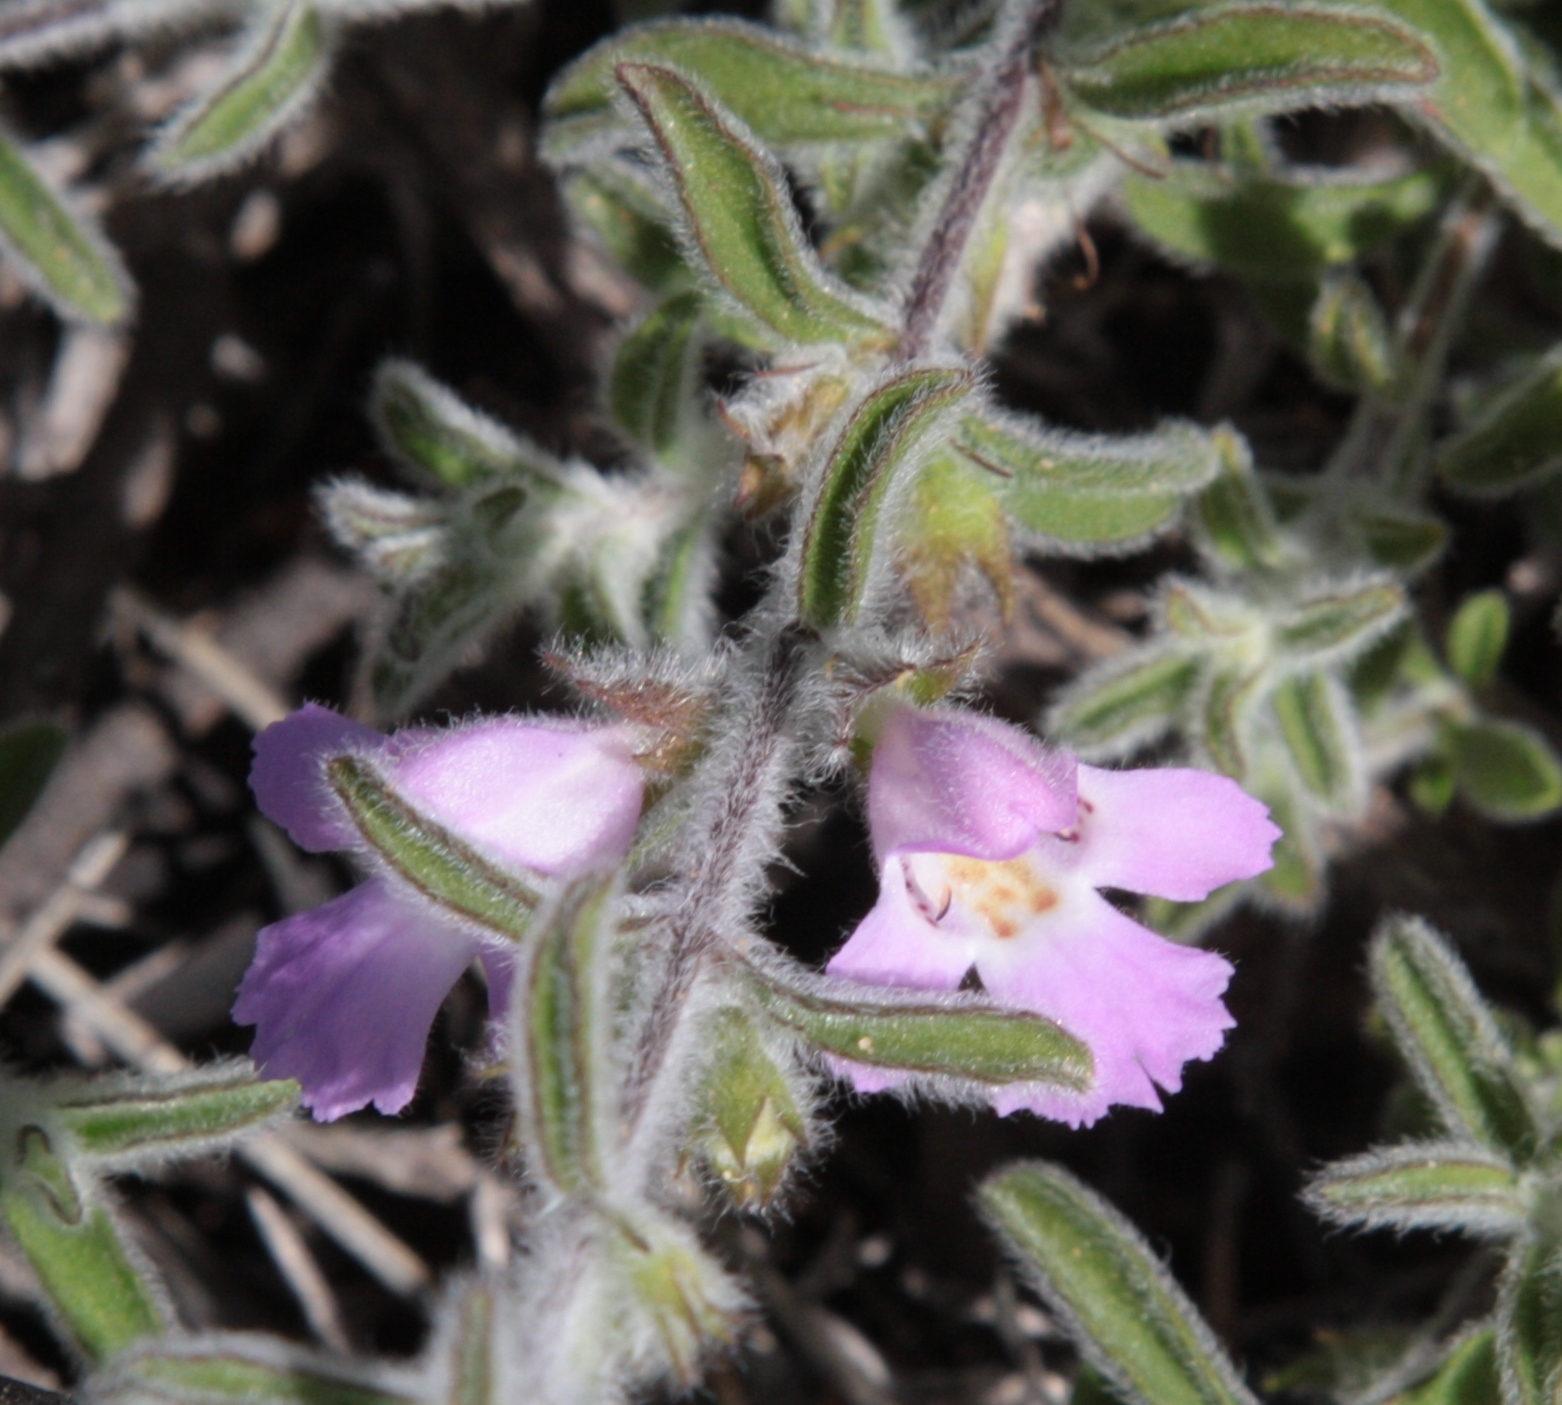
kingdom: Plantae
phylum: Tracheophyta
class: Magnoliopsida
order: Lamiales
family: Lamiaceae
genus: Hemigenia
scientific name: Hemigenia incana
